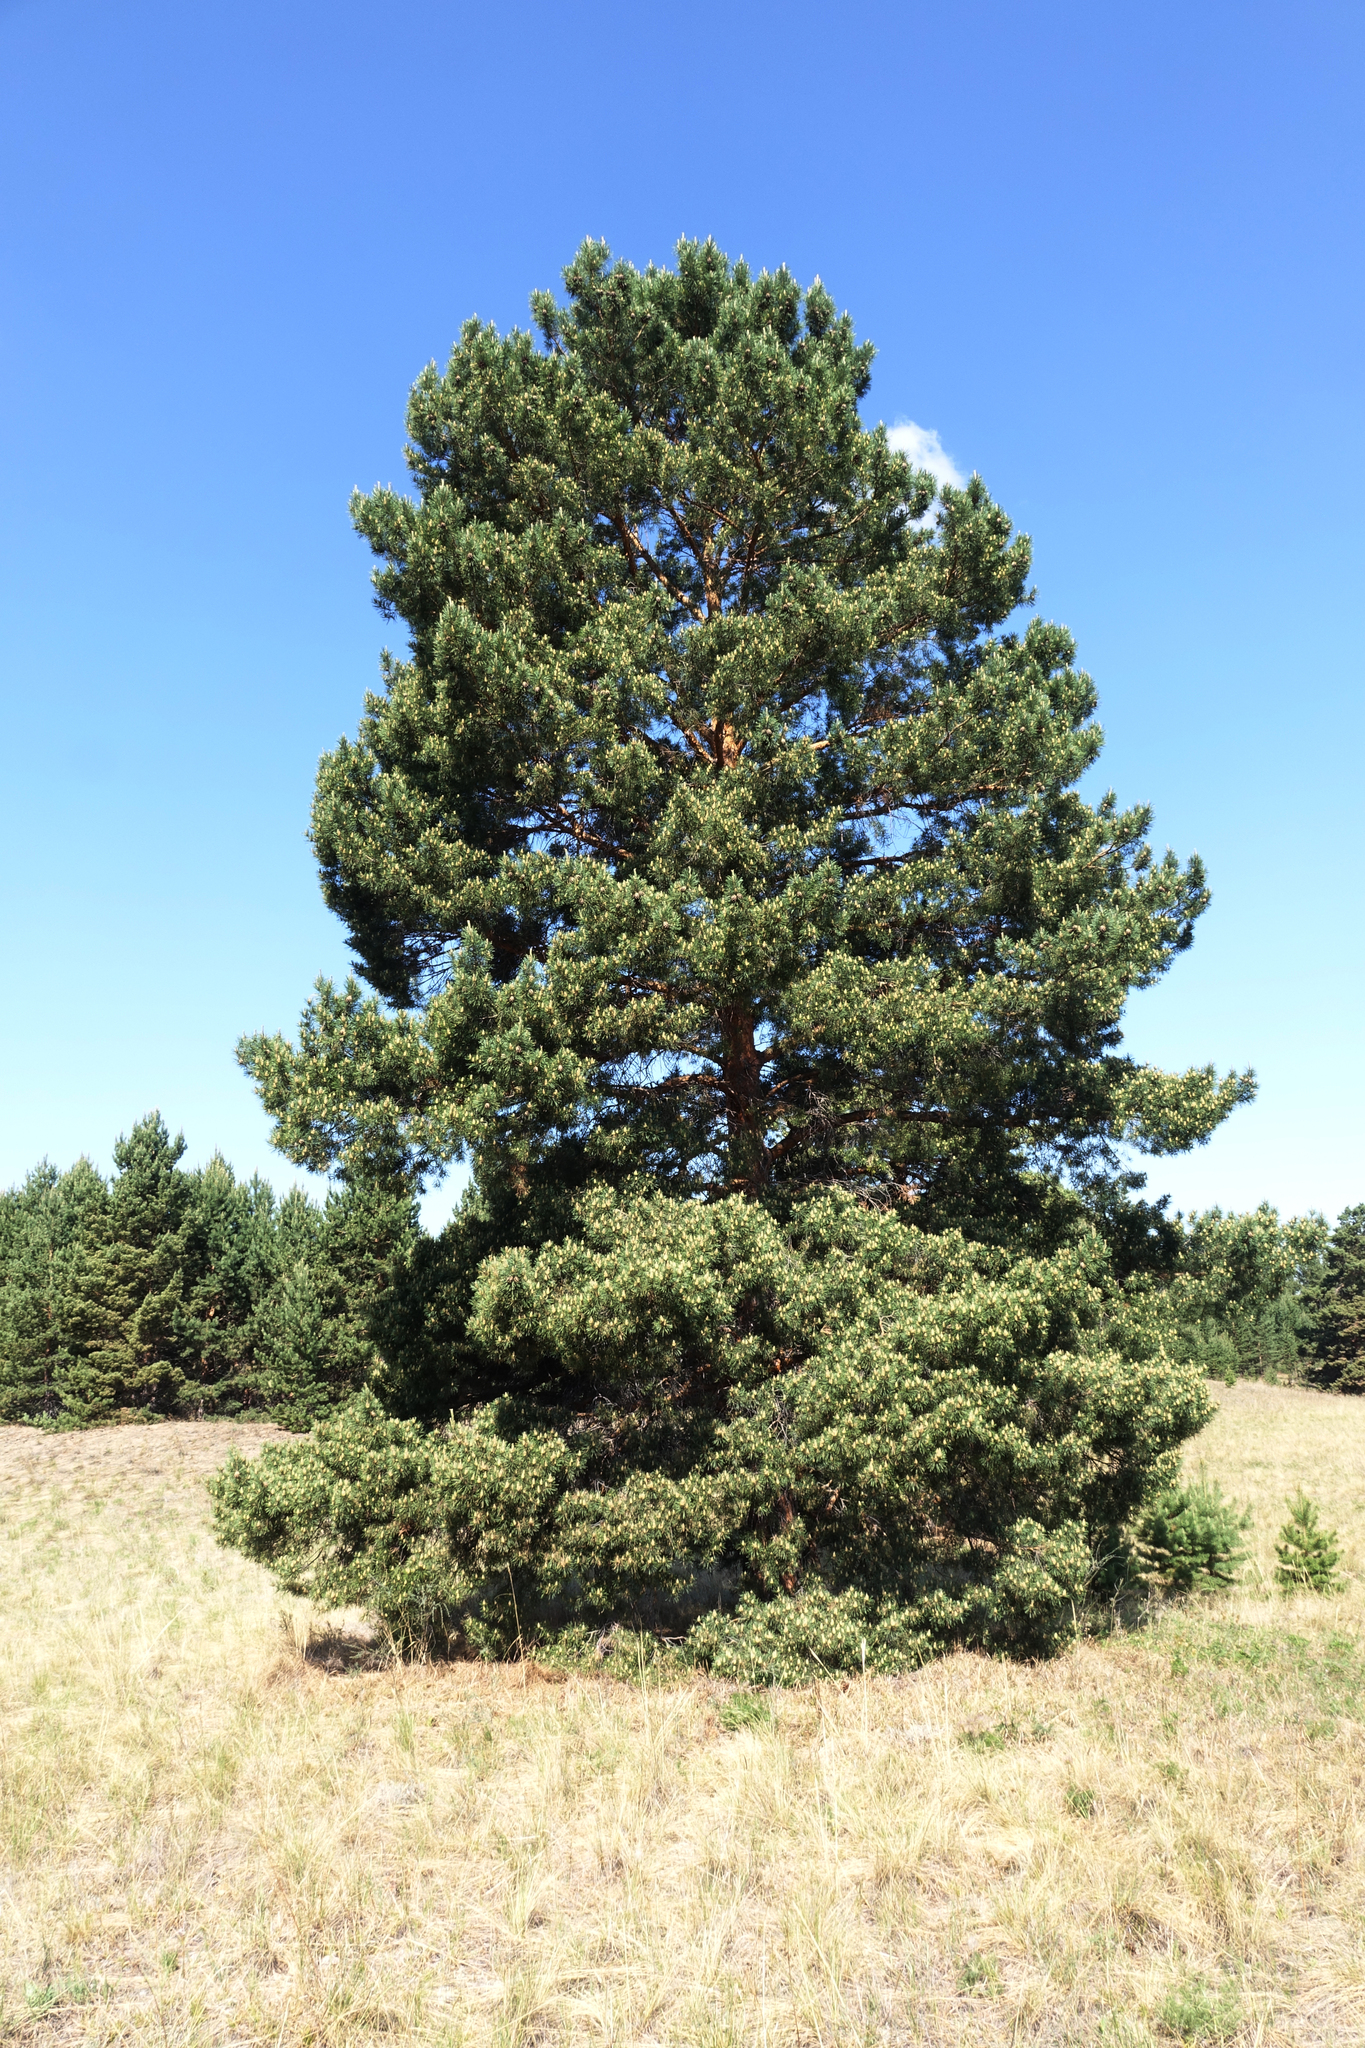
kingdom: Plantae
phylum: Tracheophyta
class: Pinopsida
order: Pinales
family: Pinaceae
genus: Pinus
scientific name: Pinus sylvestris
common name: Scots pine
